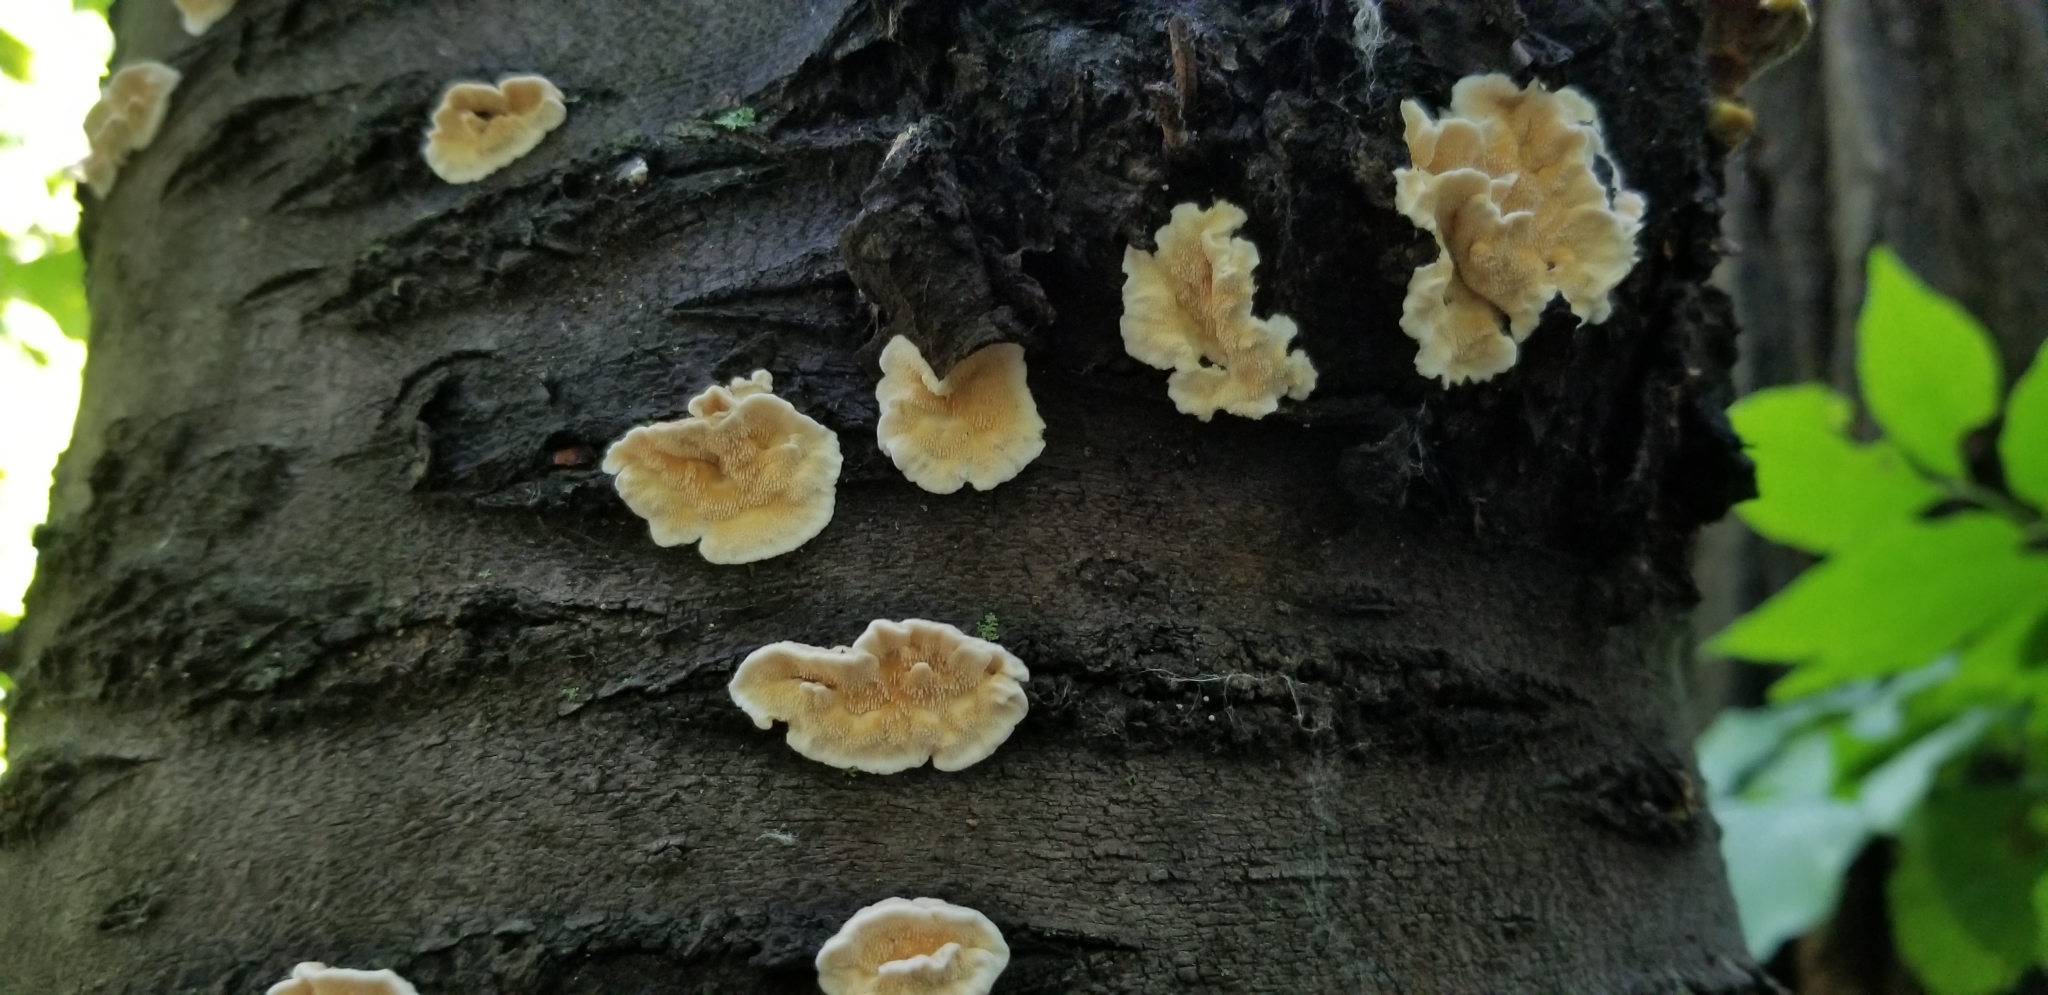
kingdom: Fungi
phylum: Basidiomycota
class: Agaricomycetes
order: Polyporales
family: Irpicaceae
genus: Irpex
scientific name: Irpex lacteus
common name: Milk-white toothed polypore
